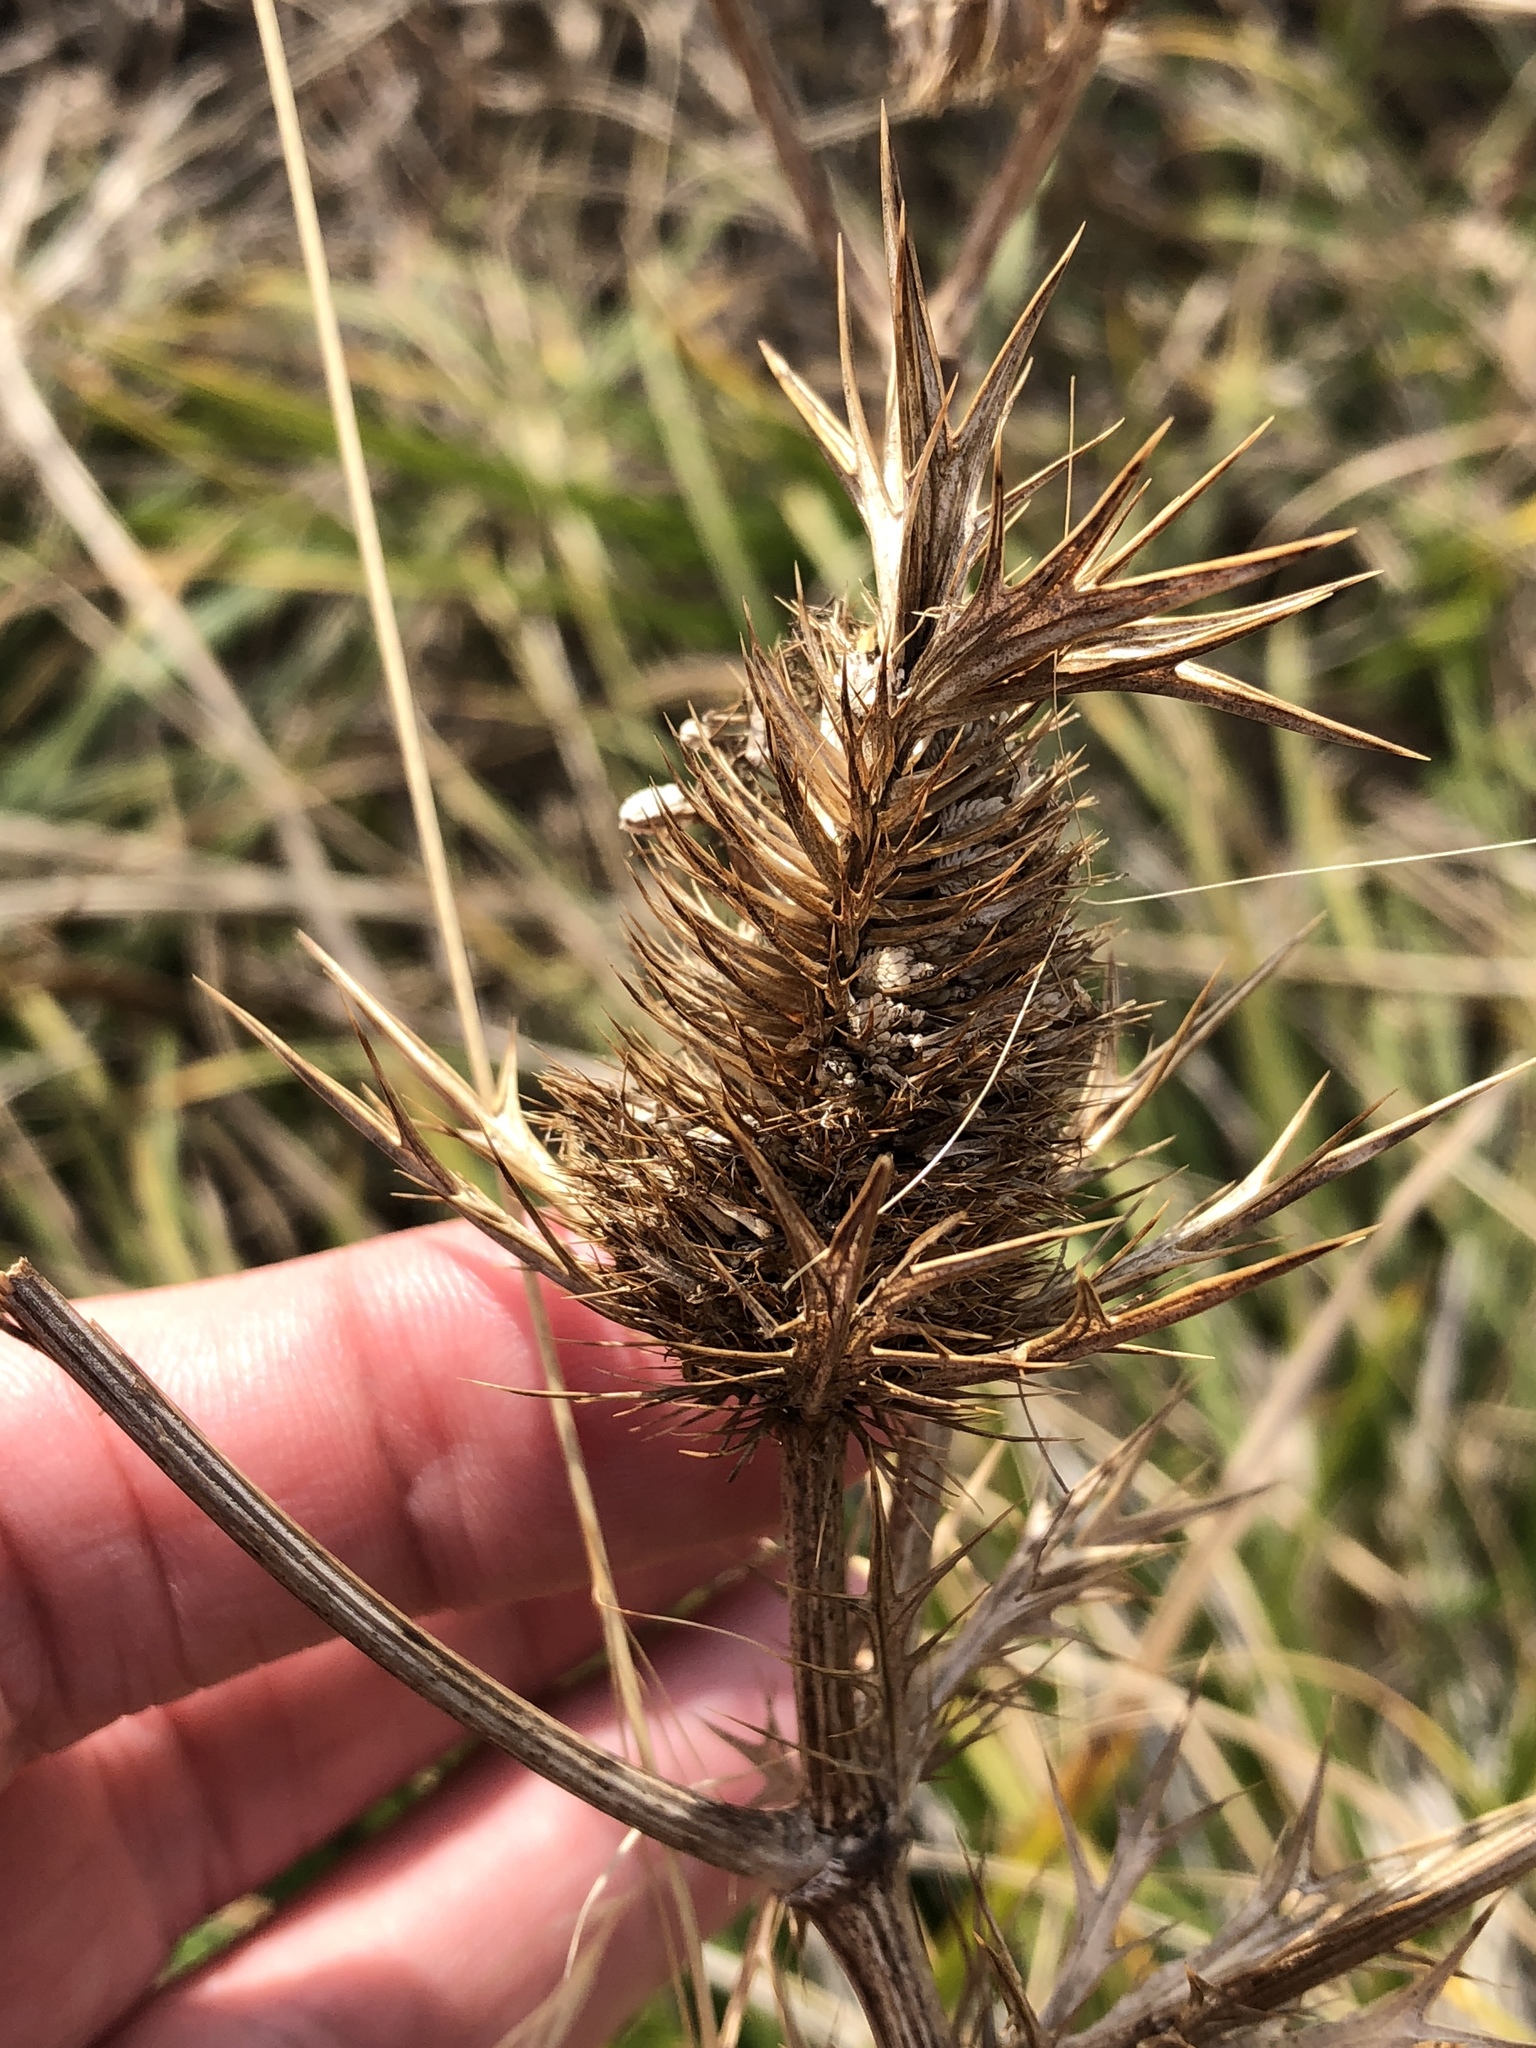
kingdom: Plantae
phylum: Tracheophyta
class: Magnoliopsida
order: Apiales
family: Apiaceae
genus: Eryngium
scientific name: Eryngium leavenworthii
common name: Leavenworth's eryngo
